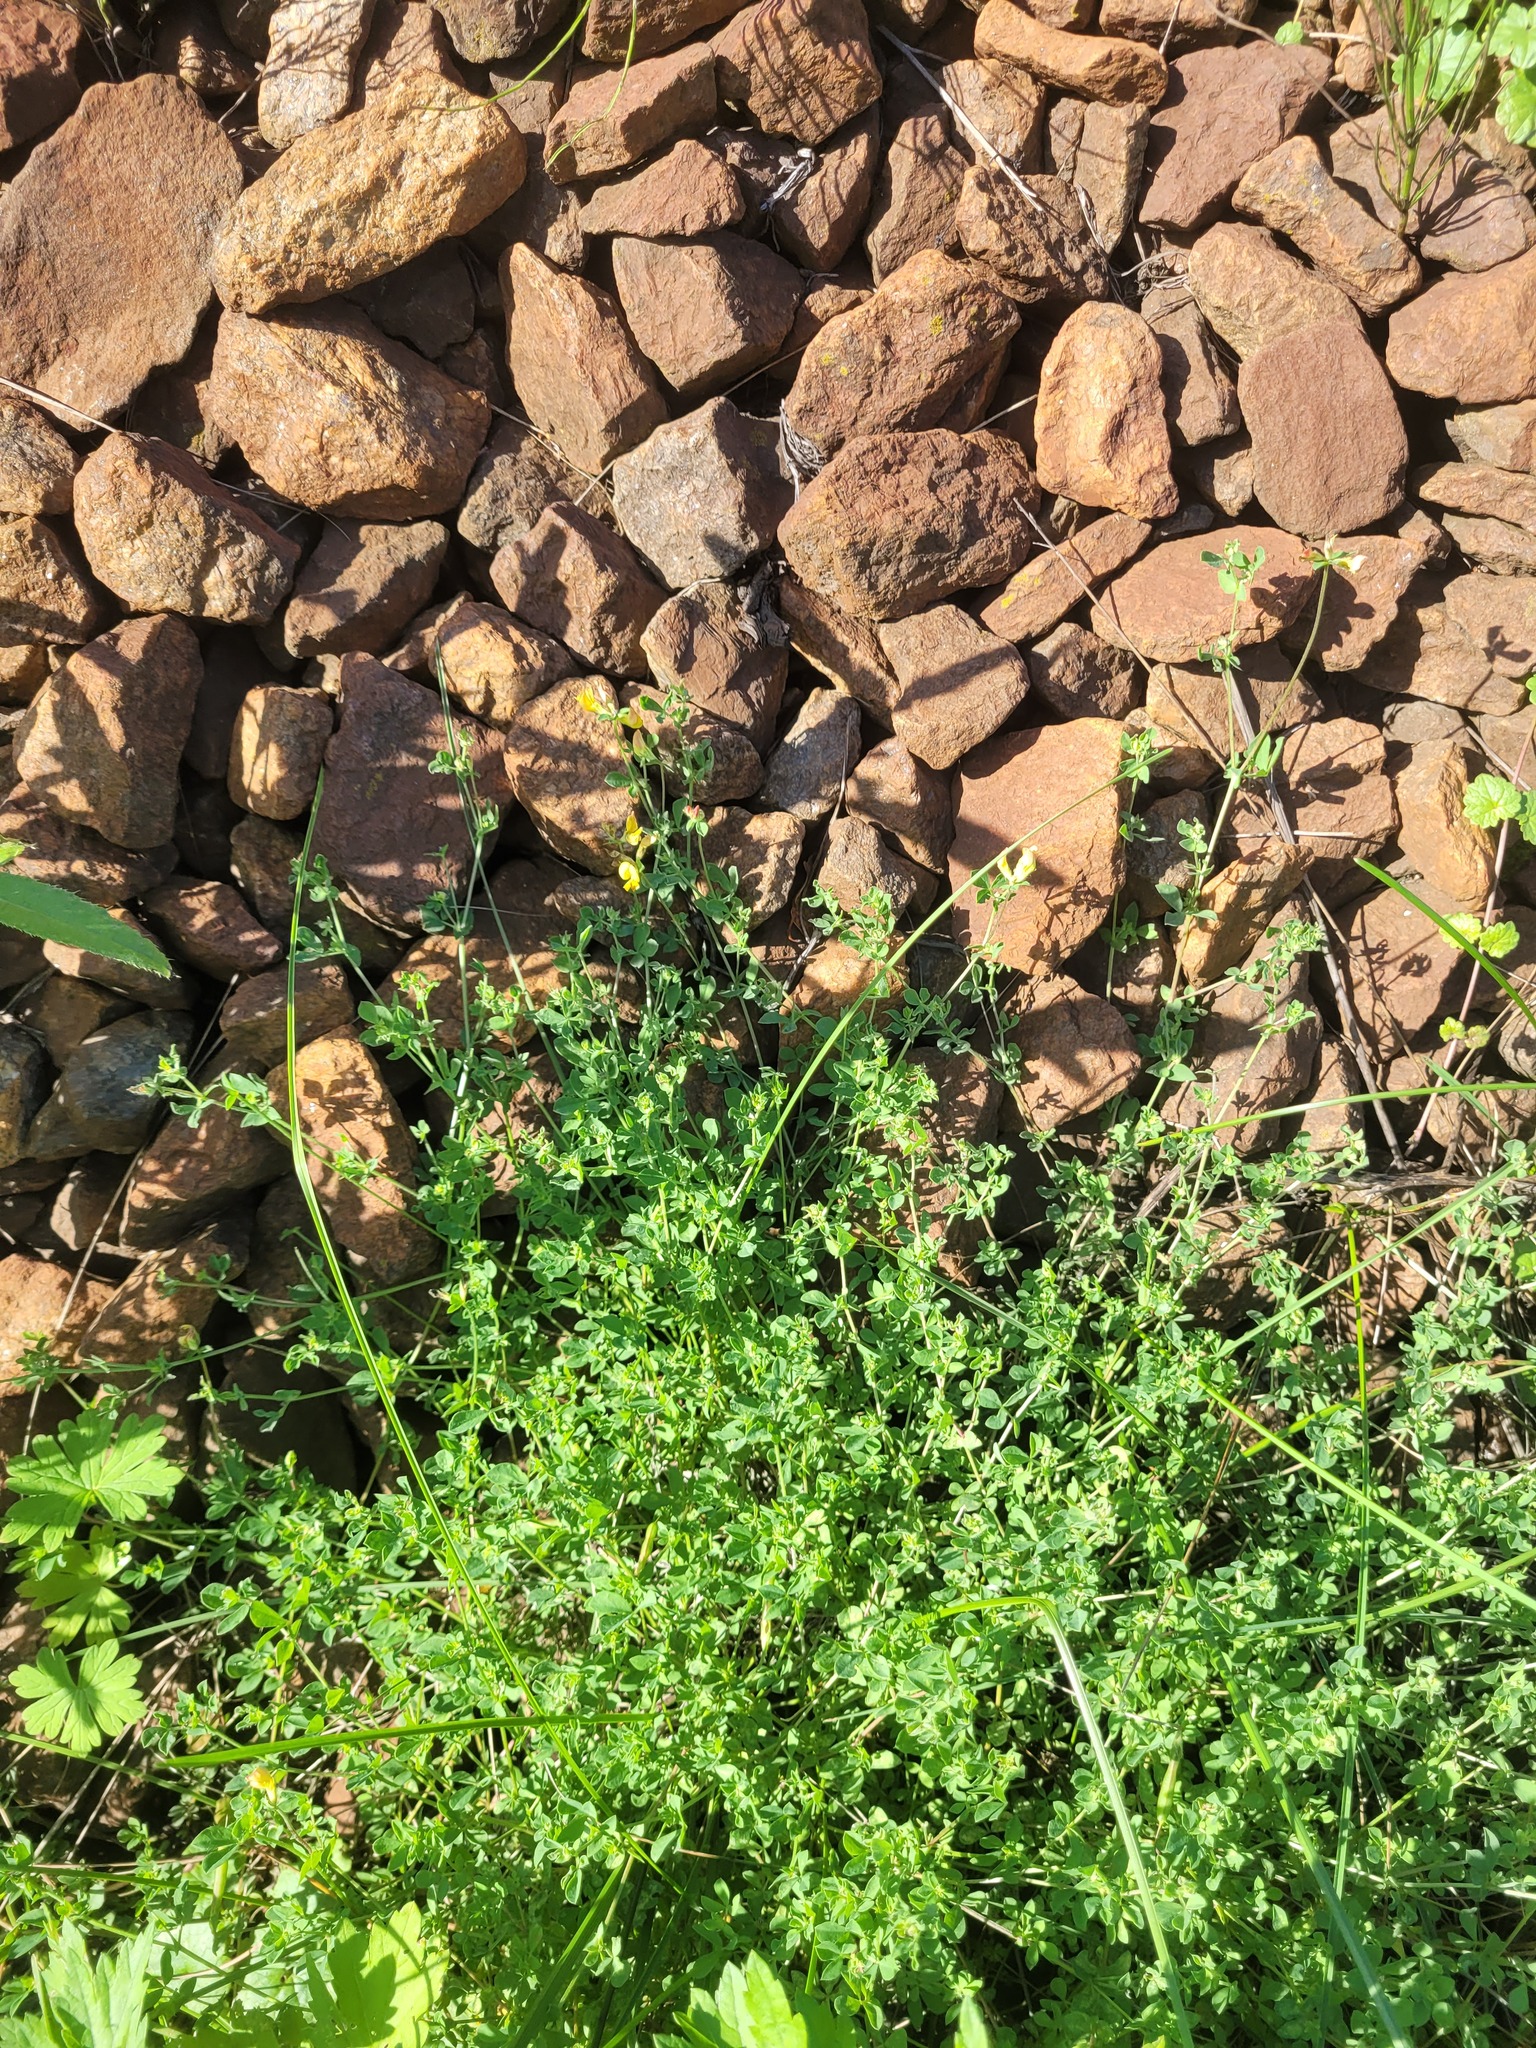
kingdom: Plantae
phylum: Tracheophyta
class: Magnoliopsida
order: Fabales
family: Fabaceae
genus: Lotus
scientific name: Lotus corniculatus
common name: Common bird's-foot-trefoil
